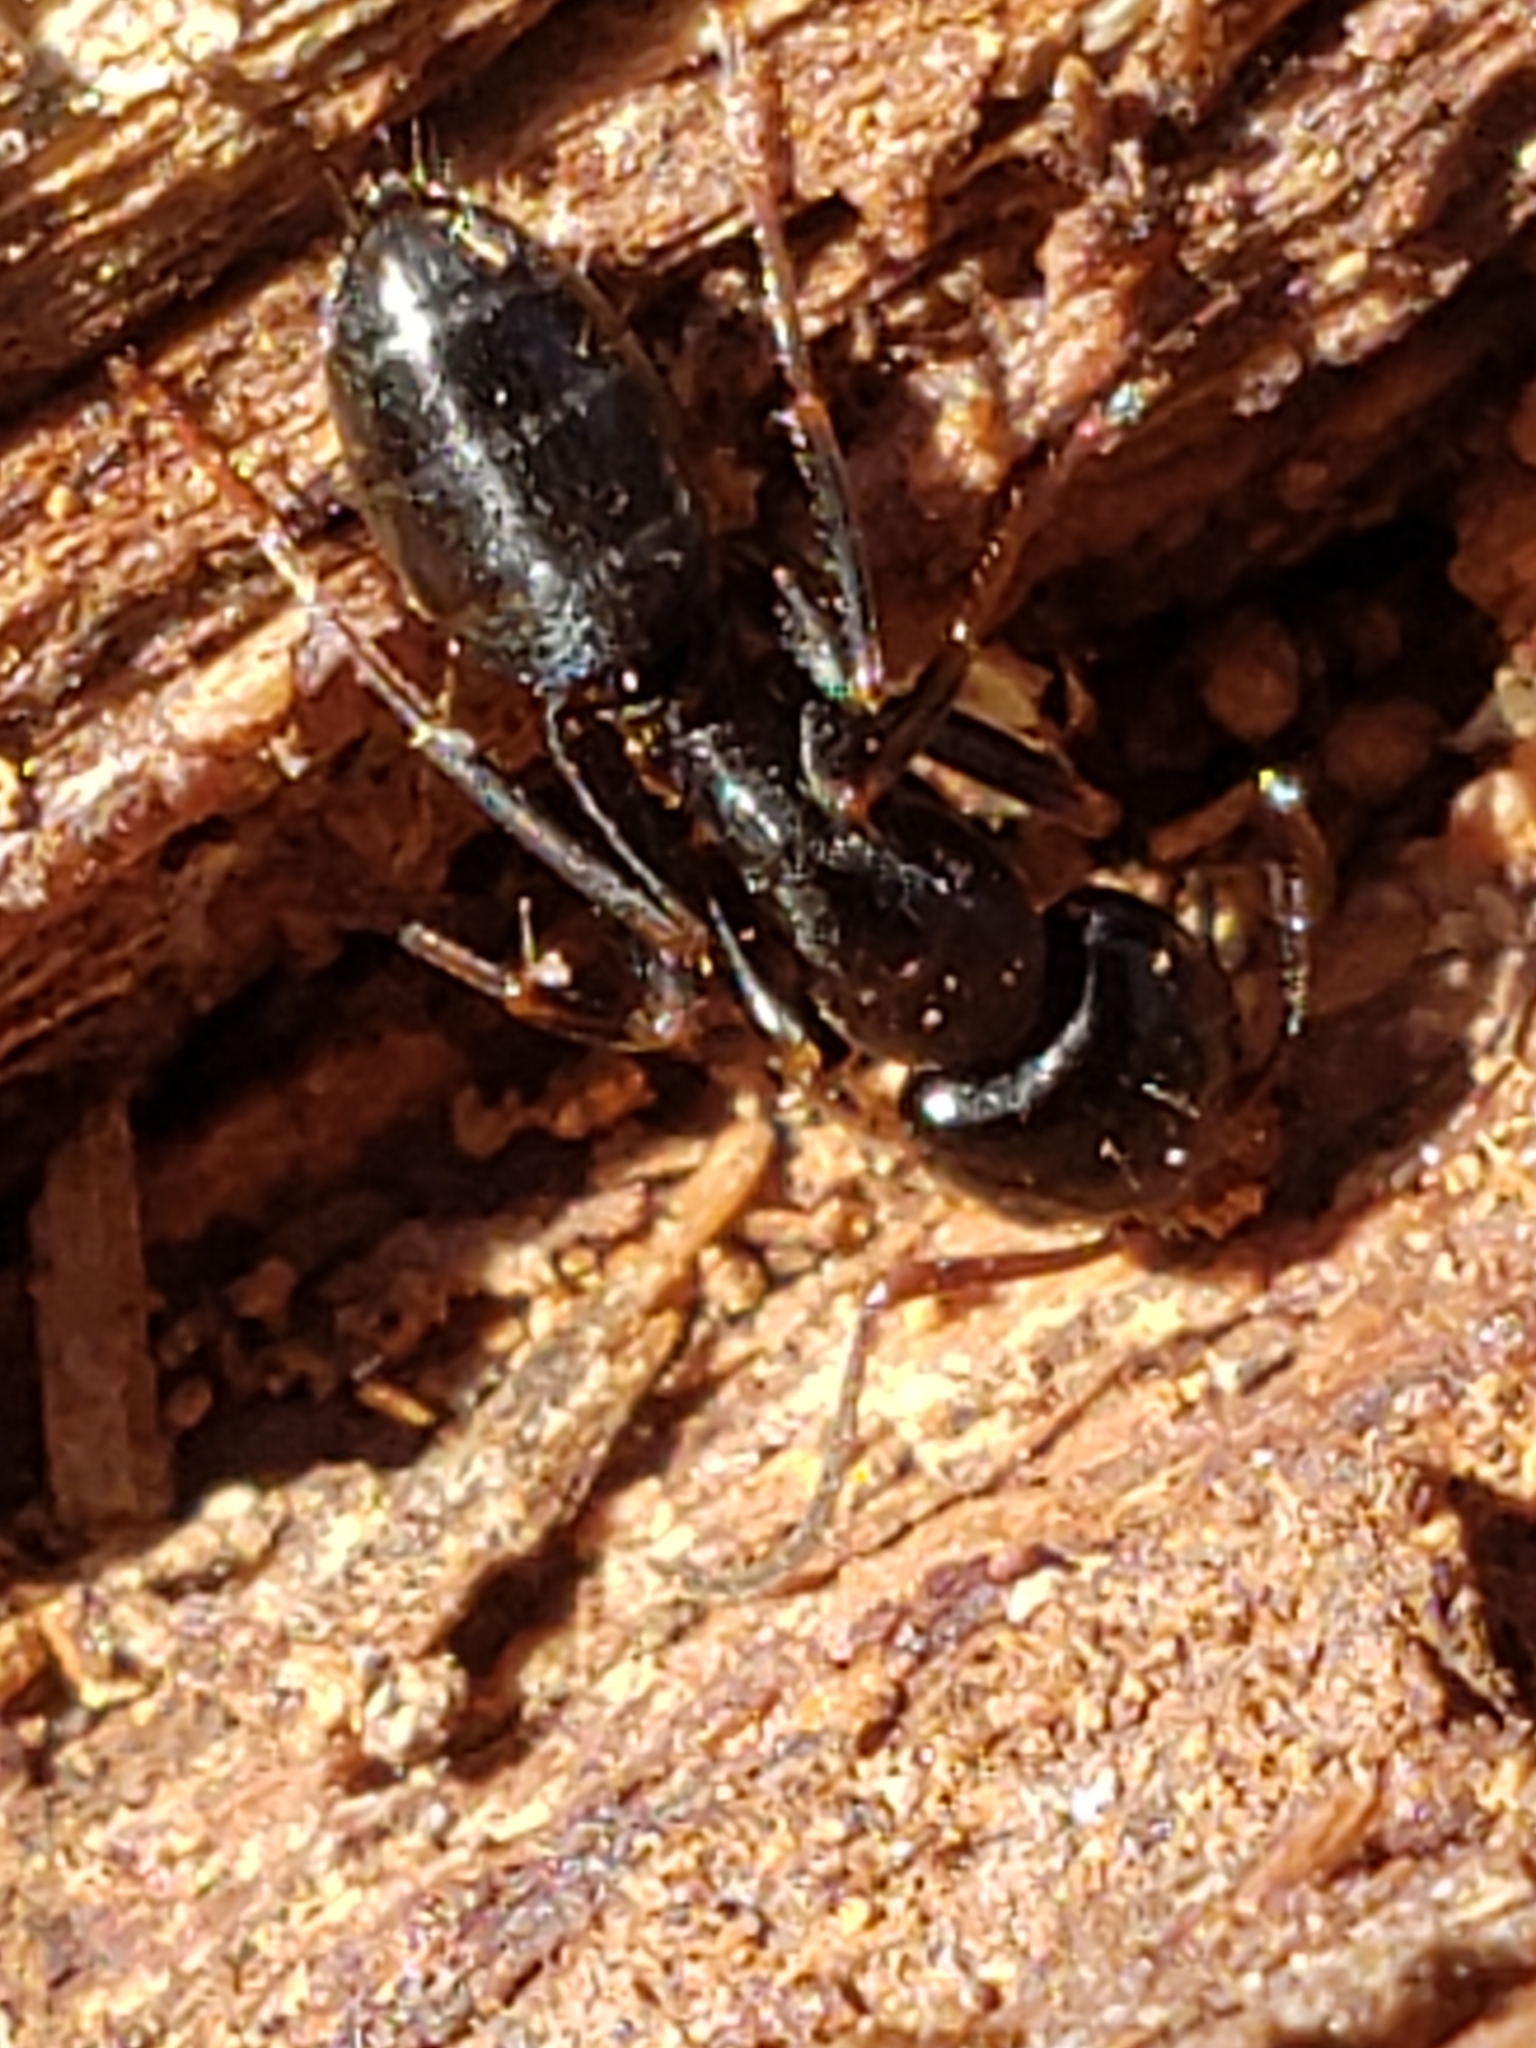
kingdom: Animalia
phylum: Arthropoda
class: Insecta
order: Hymenoptera
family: Formicidae
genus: Camponotus
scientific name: Camponotus nearcticus
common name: Smaller carpenter ant
